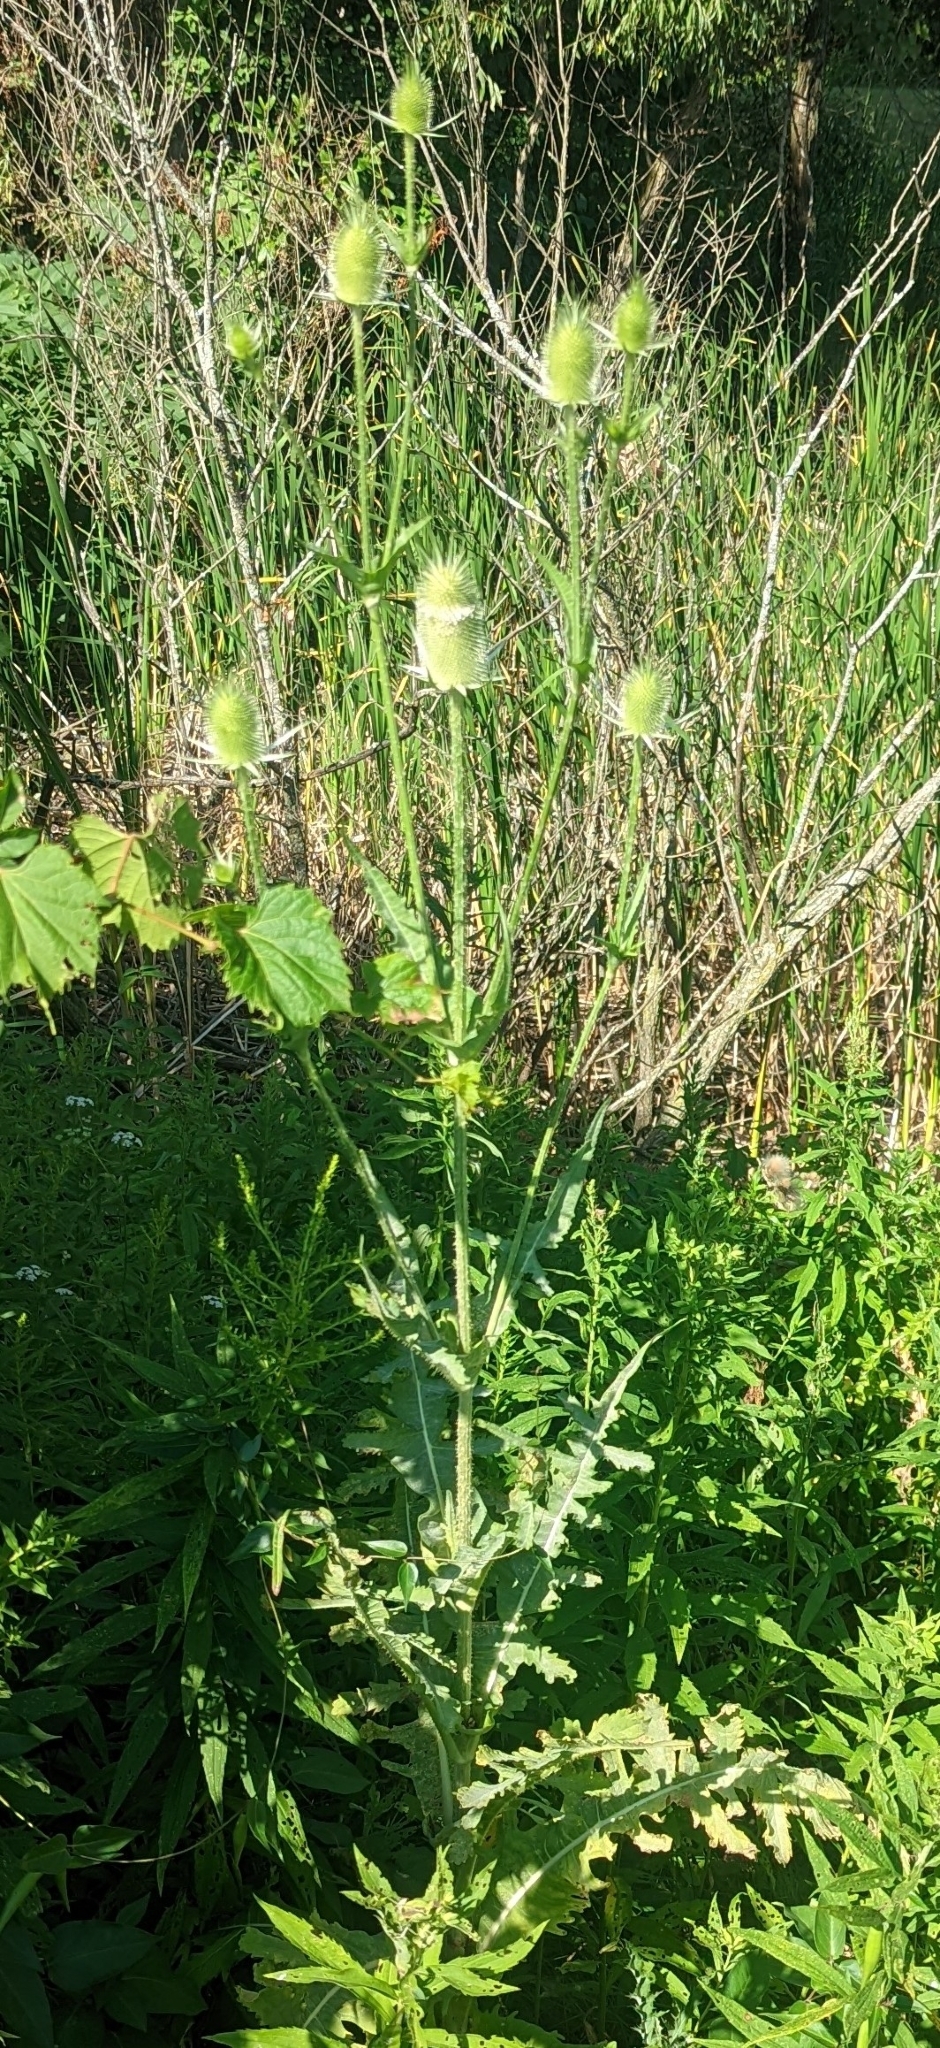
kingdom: Plantae
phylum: Tracheophyta
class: Magnoliopsida
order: Dipsacales
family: Caprifoliaceae
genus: Dipsacus
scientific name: Dipsacus laciniatus
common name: Cut-leaved teasel
